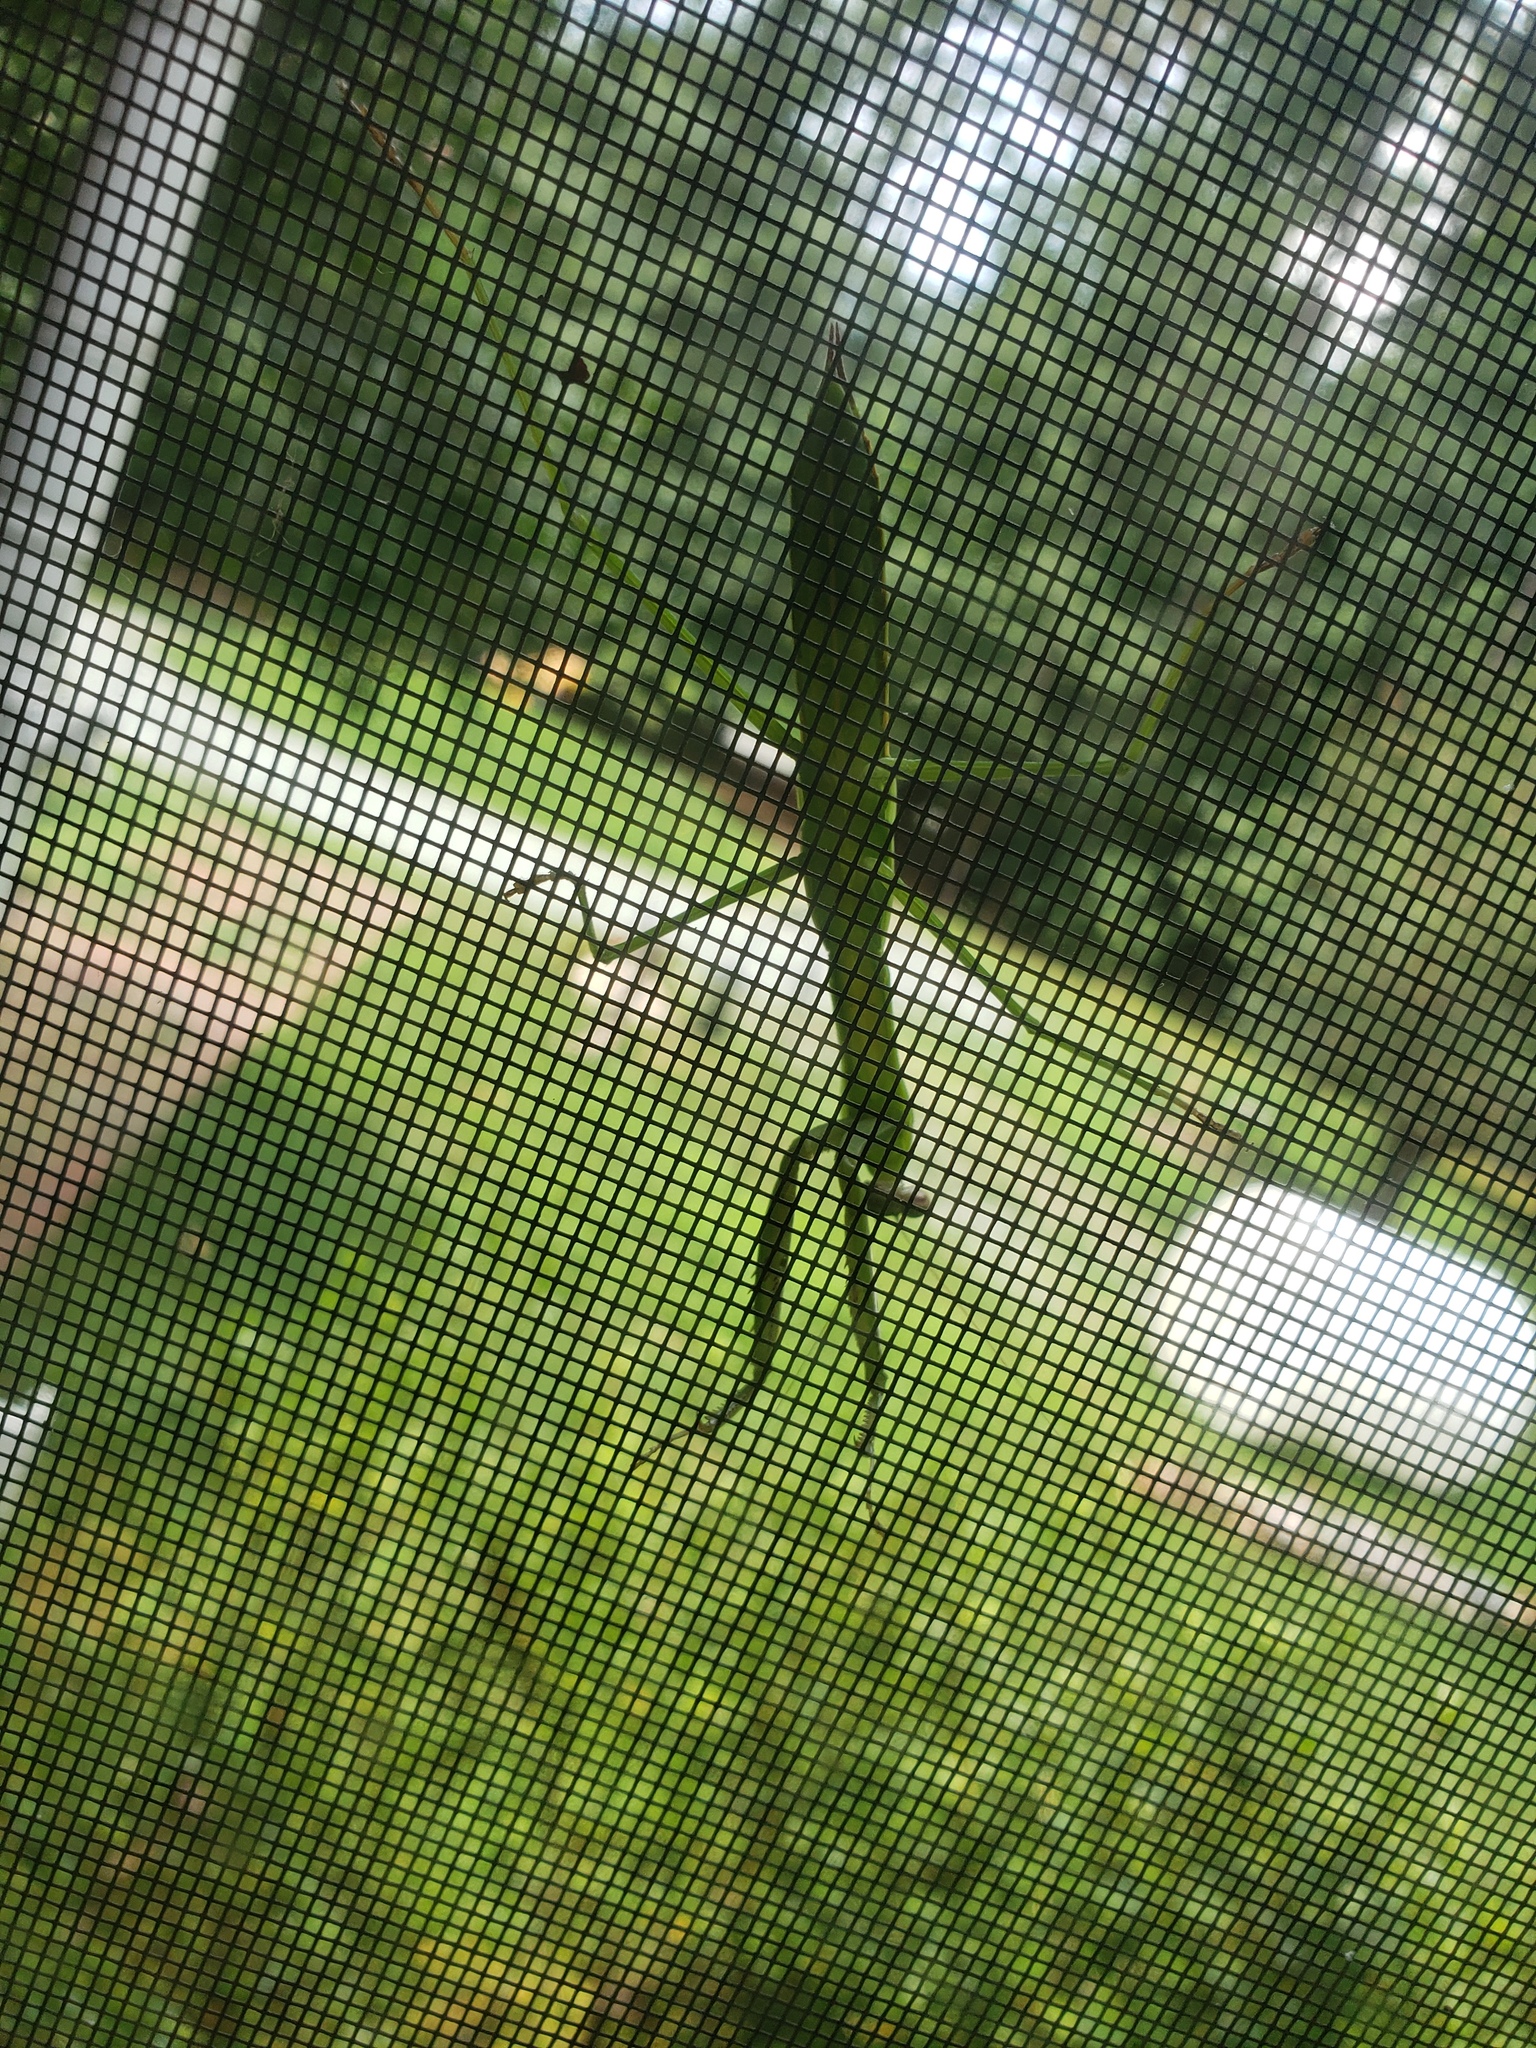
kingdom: Animalia
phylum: Arthropoda
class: Insecta
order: Mantodea
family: Mantidae
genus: Tenodera
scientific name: Tenodera sinensis
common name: Chinese mantis
